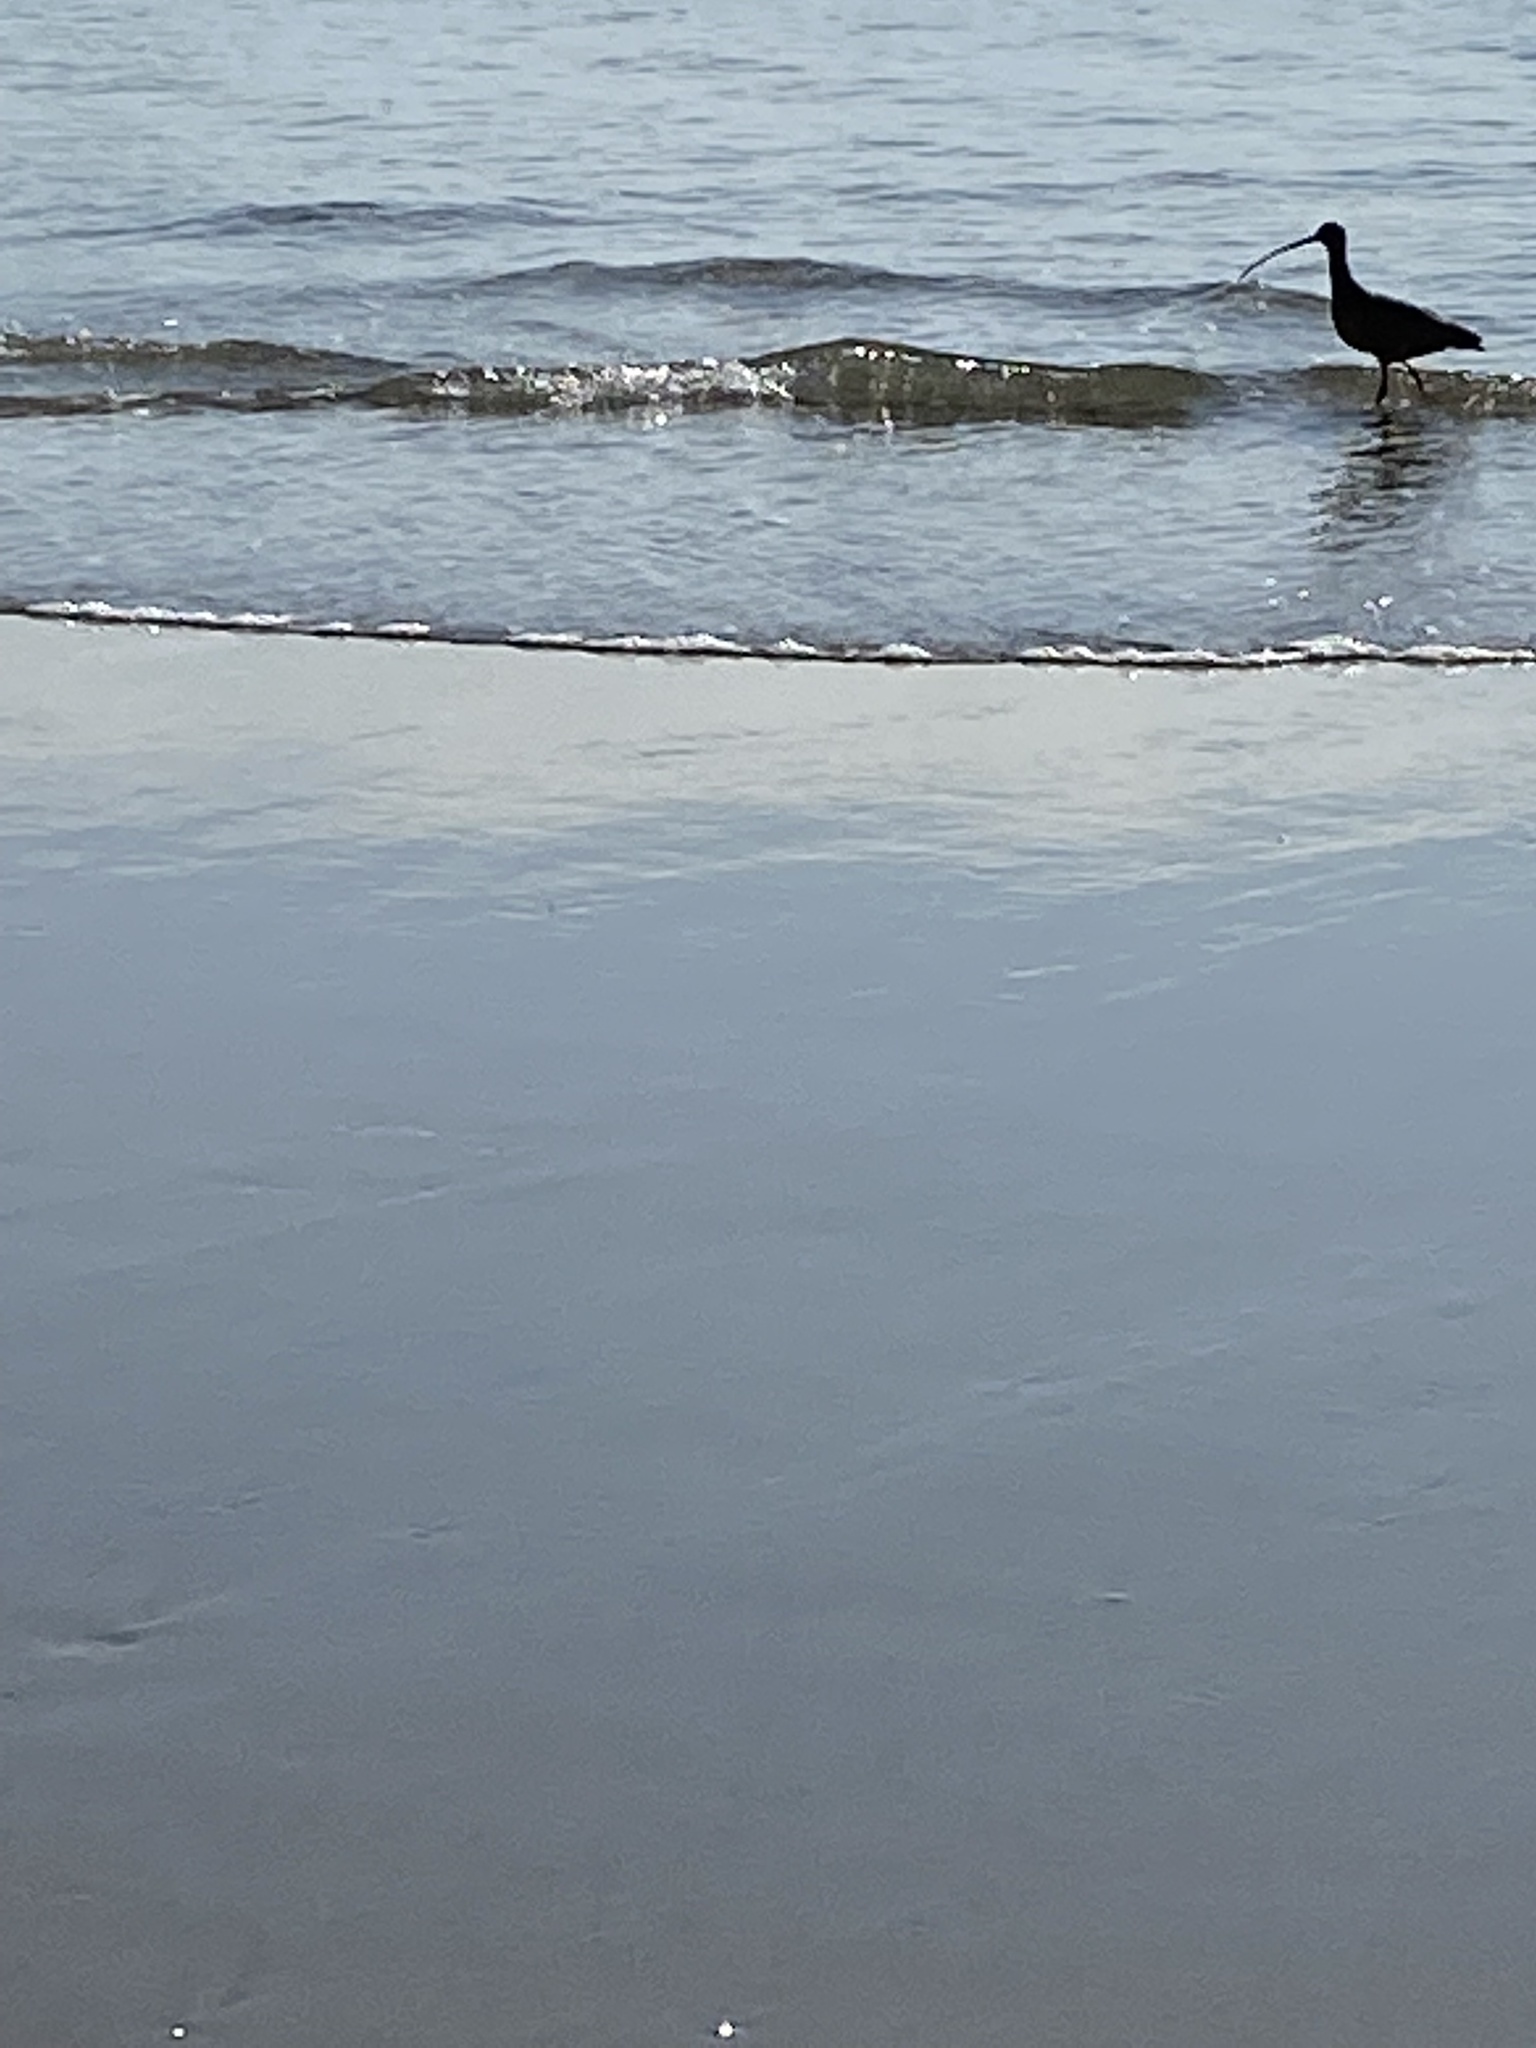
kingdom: Animalia
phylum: Chordata
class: Aves
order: Charadriiformes
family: Scolopacidae
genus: Numenius
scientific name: Numenius americanus
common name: Long-billed curlew
